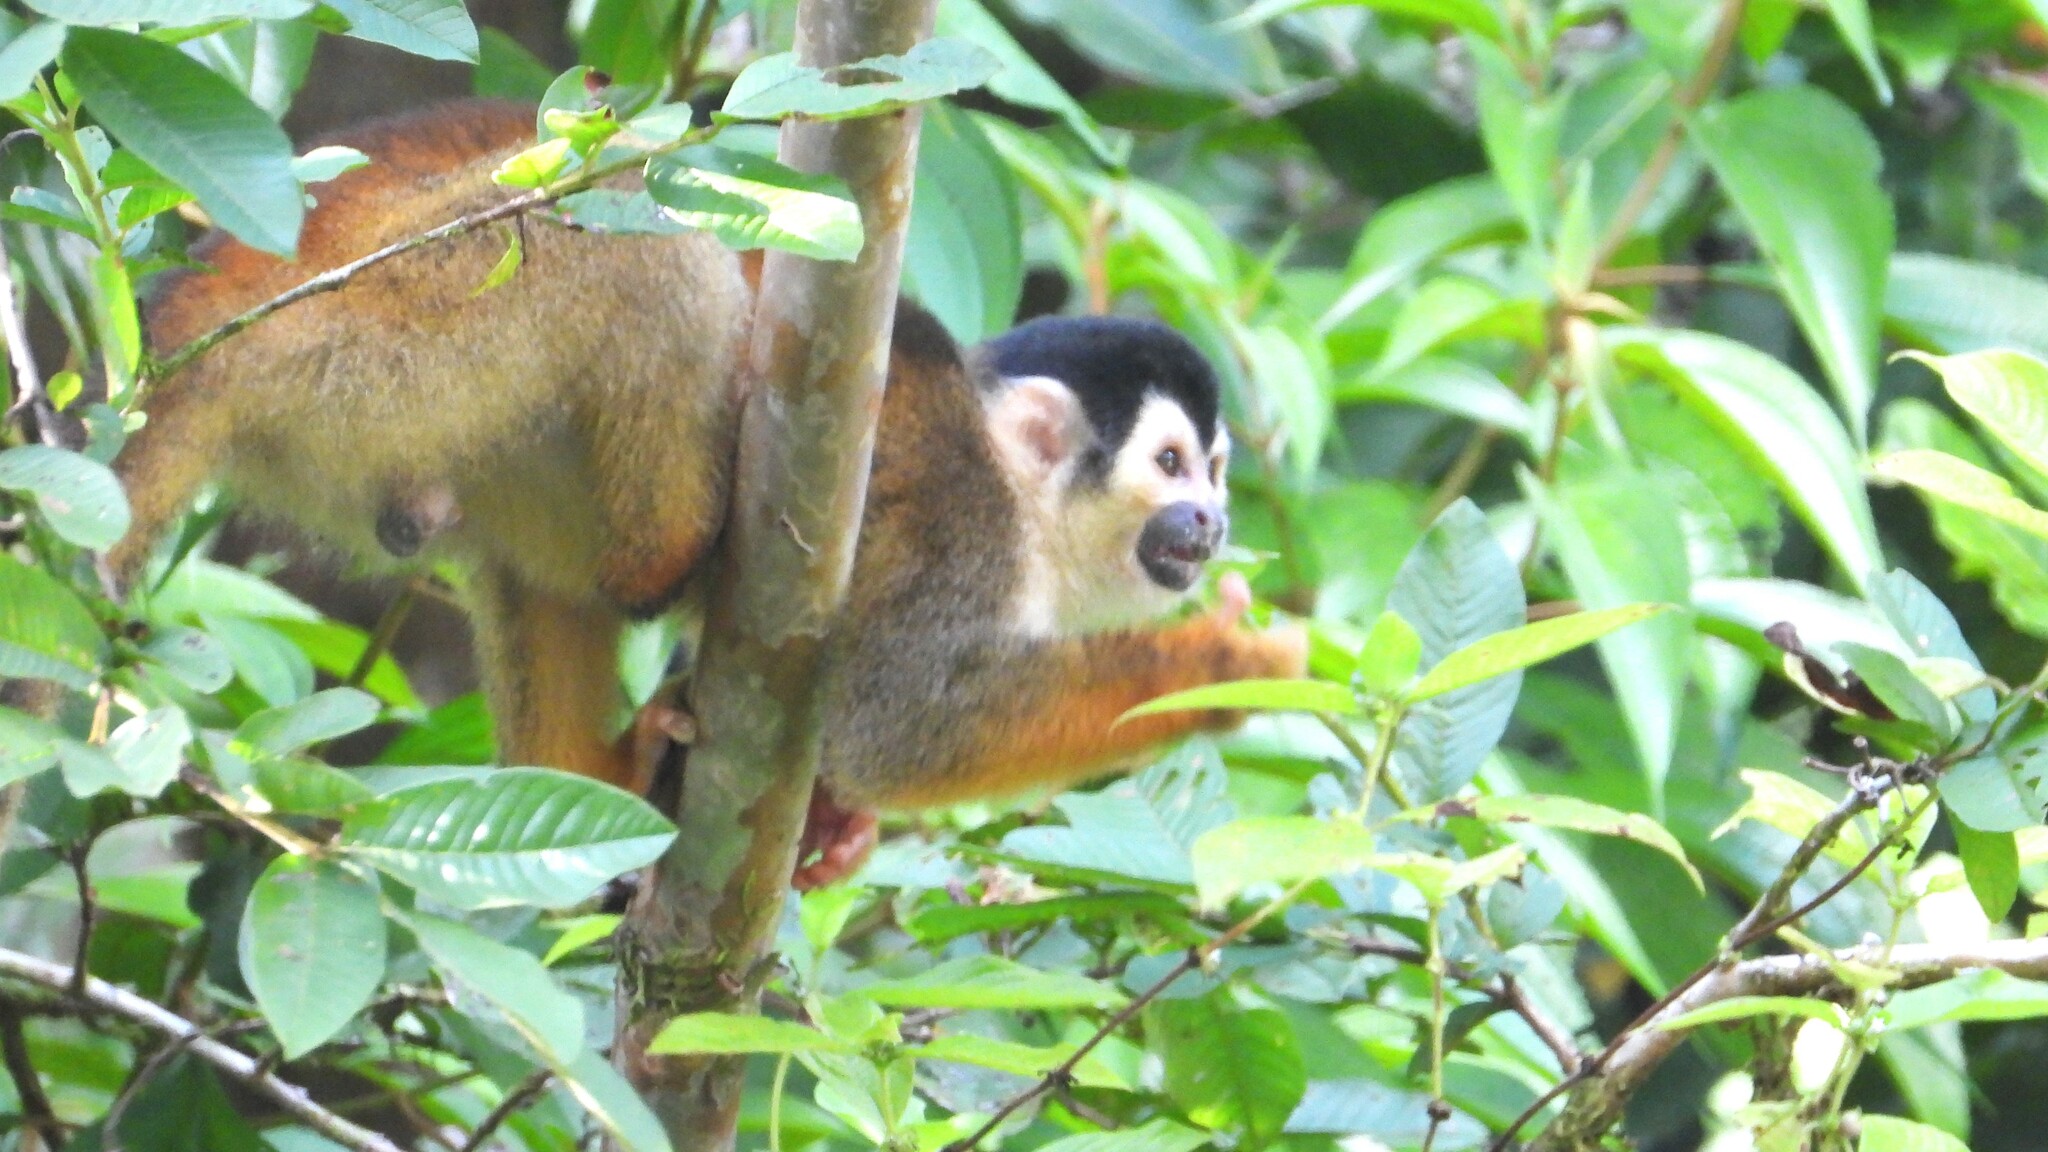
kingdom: Animalia
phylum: Chordata
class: Mammalia
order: Primates
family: Cebidae
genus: Saimiri
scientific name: Saimiri oerstedii
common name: Central american squirrel monkey
